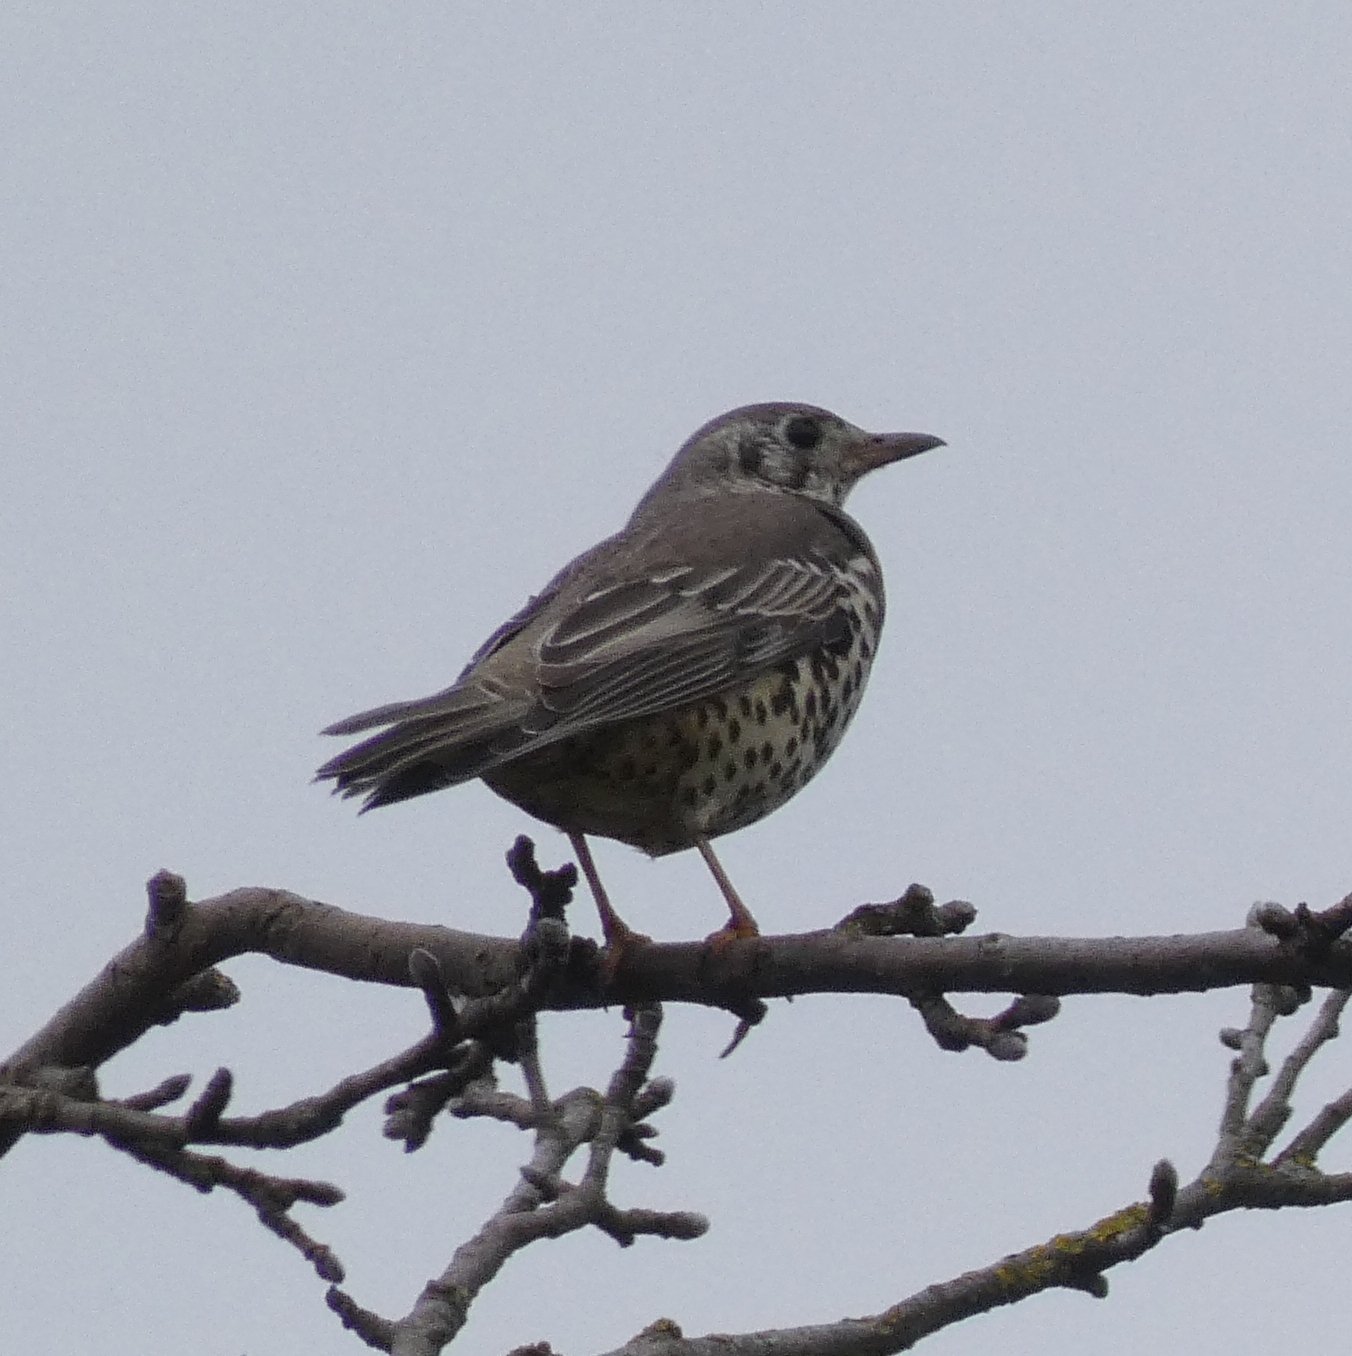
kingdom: Animalia
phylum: Chordata
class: Aves
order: Passeriformes
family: Turdidae
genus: Turdus
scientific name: Turdus viscivorus
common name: Mistle thrush
